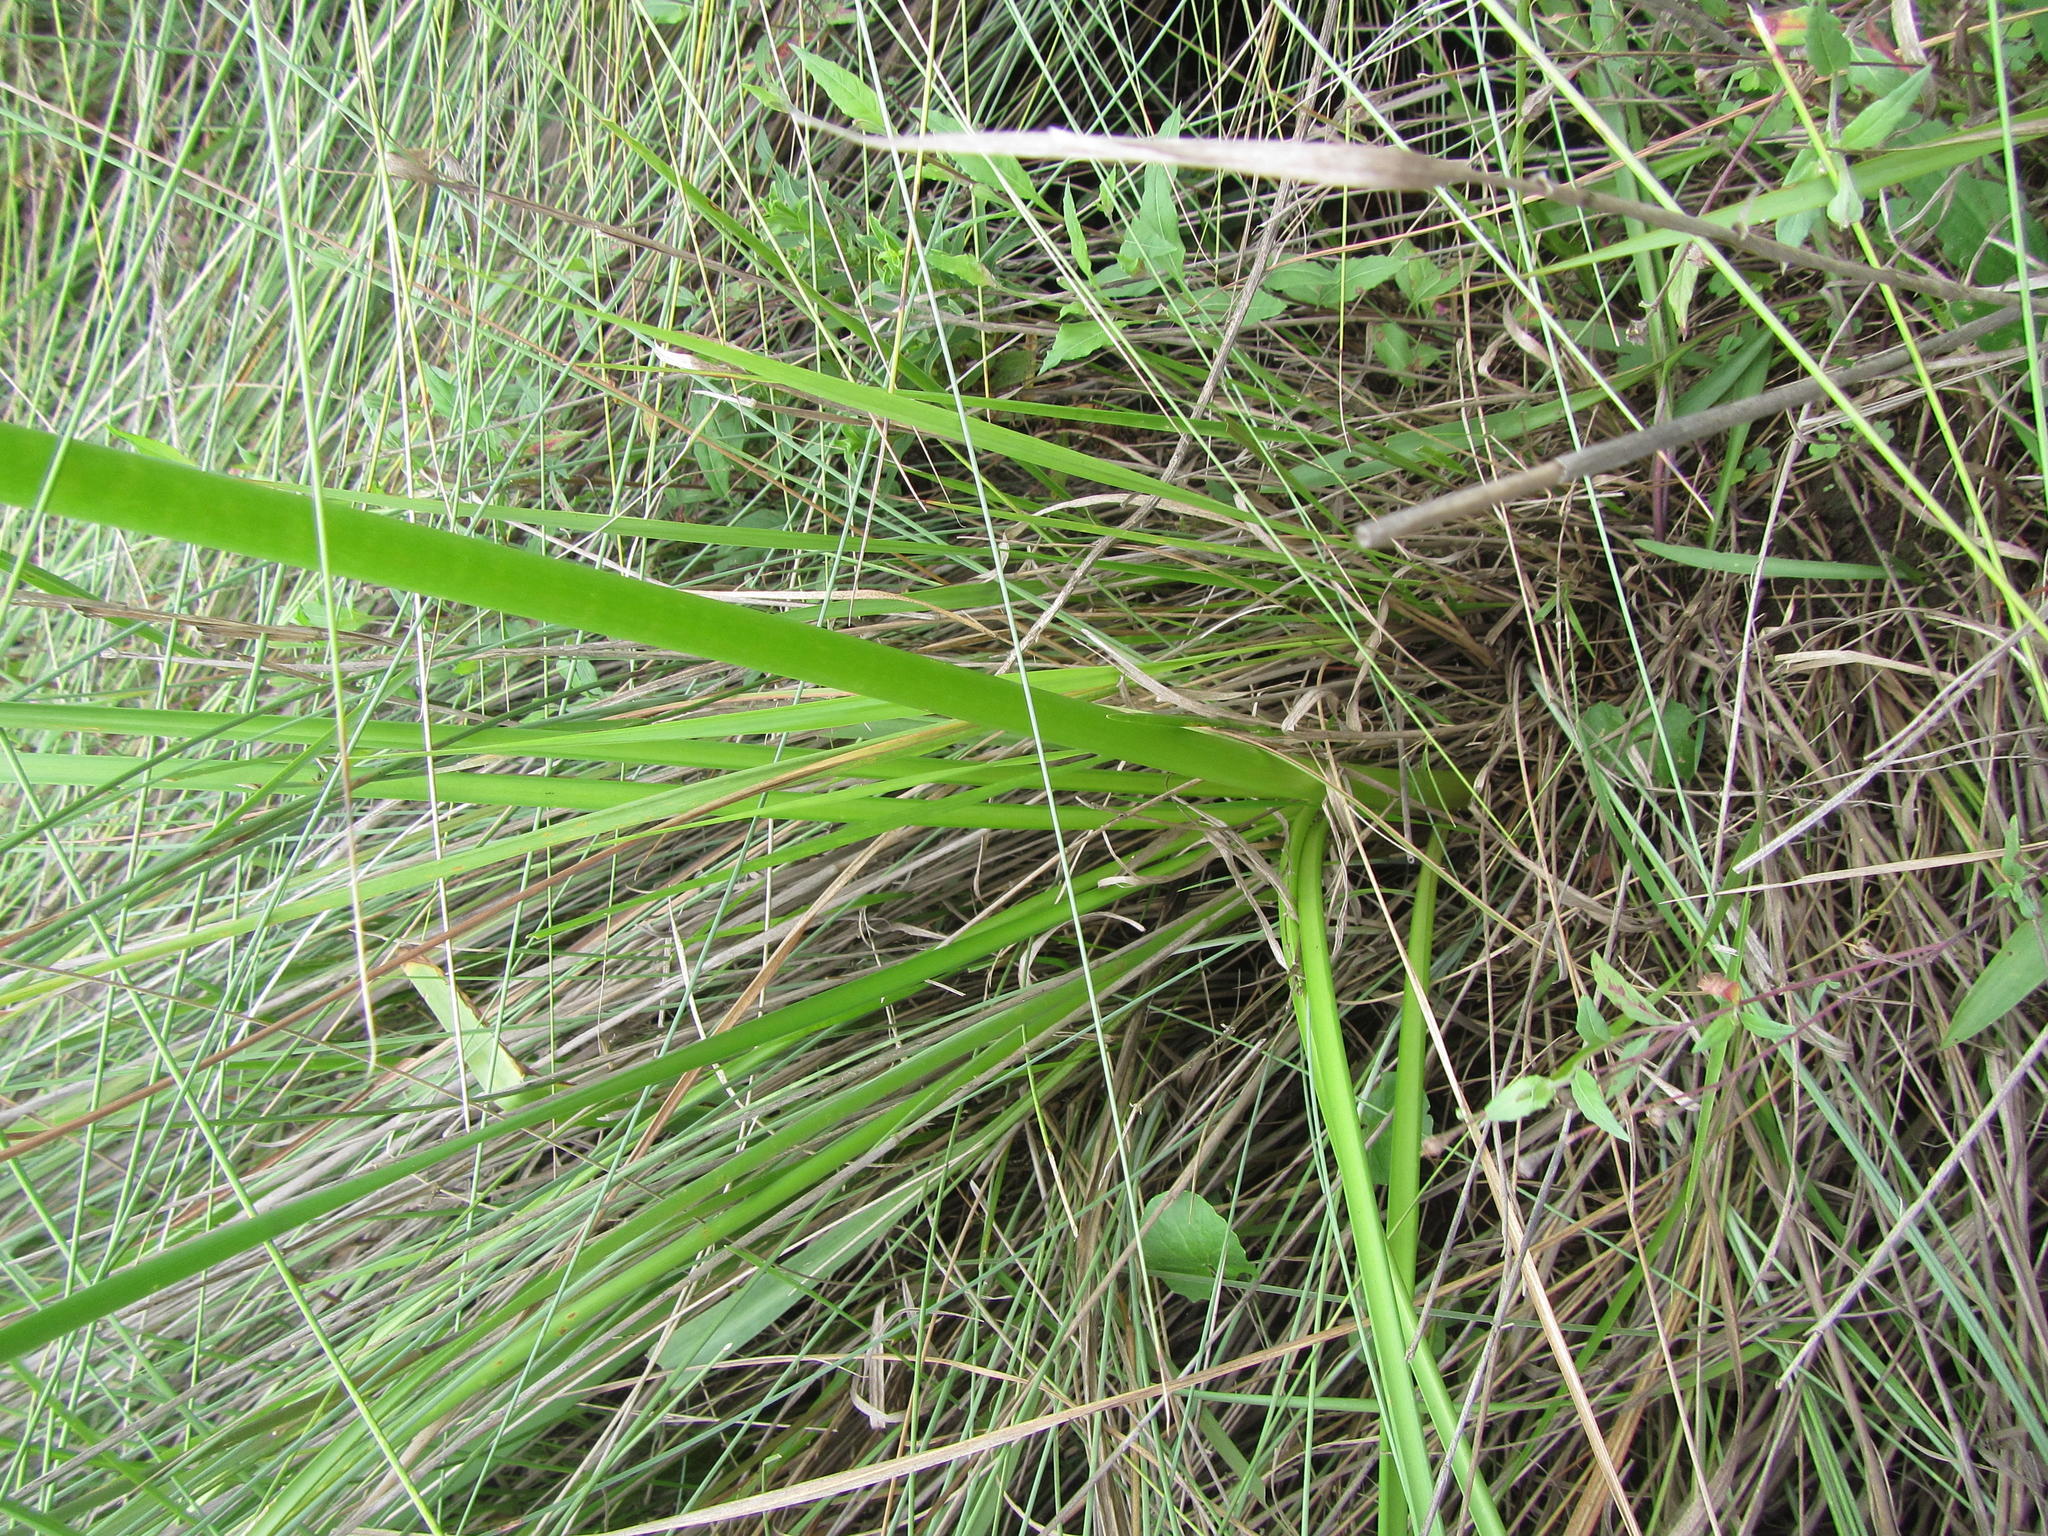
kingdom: Plantae
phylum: Tracheophyta
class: Liliopsida
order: Asparagales
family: Amaryllidaceae
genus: Nerine
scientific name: Nerine angustifolia
